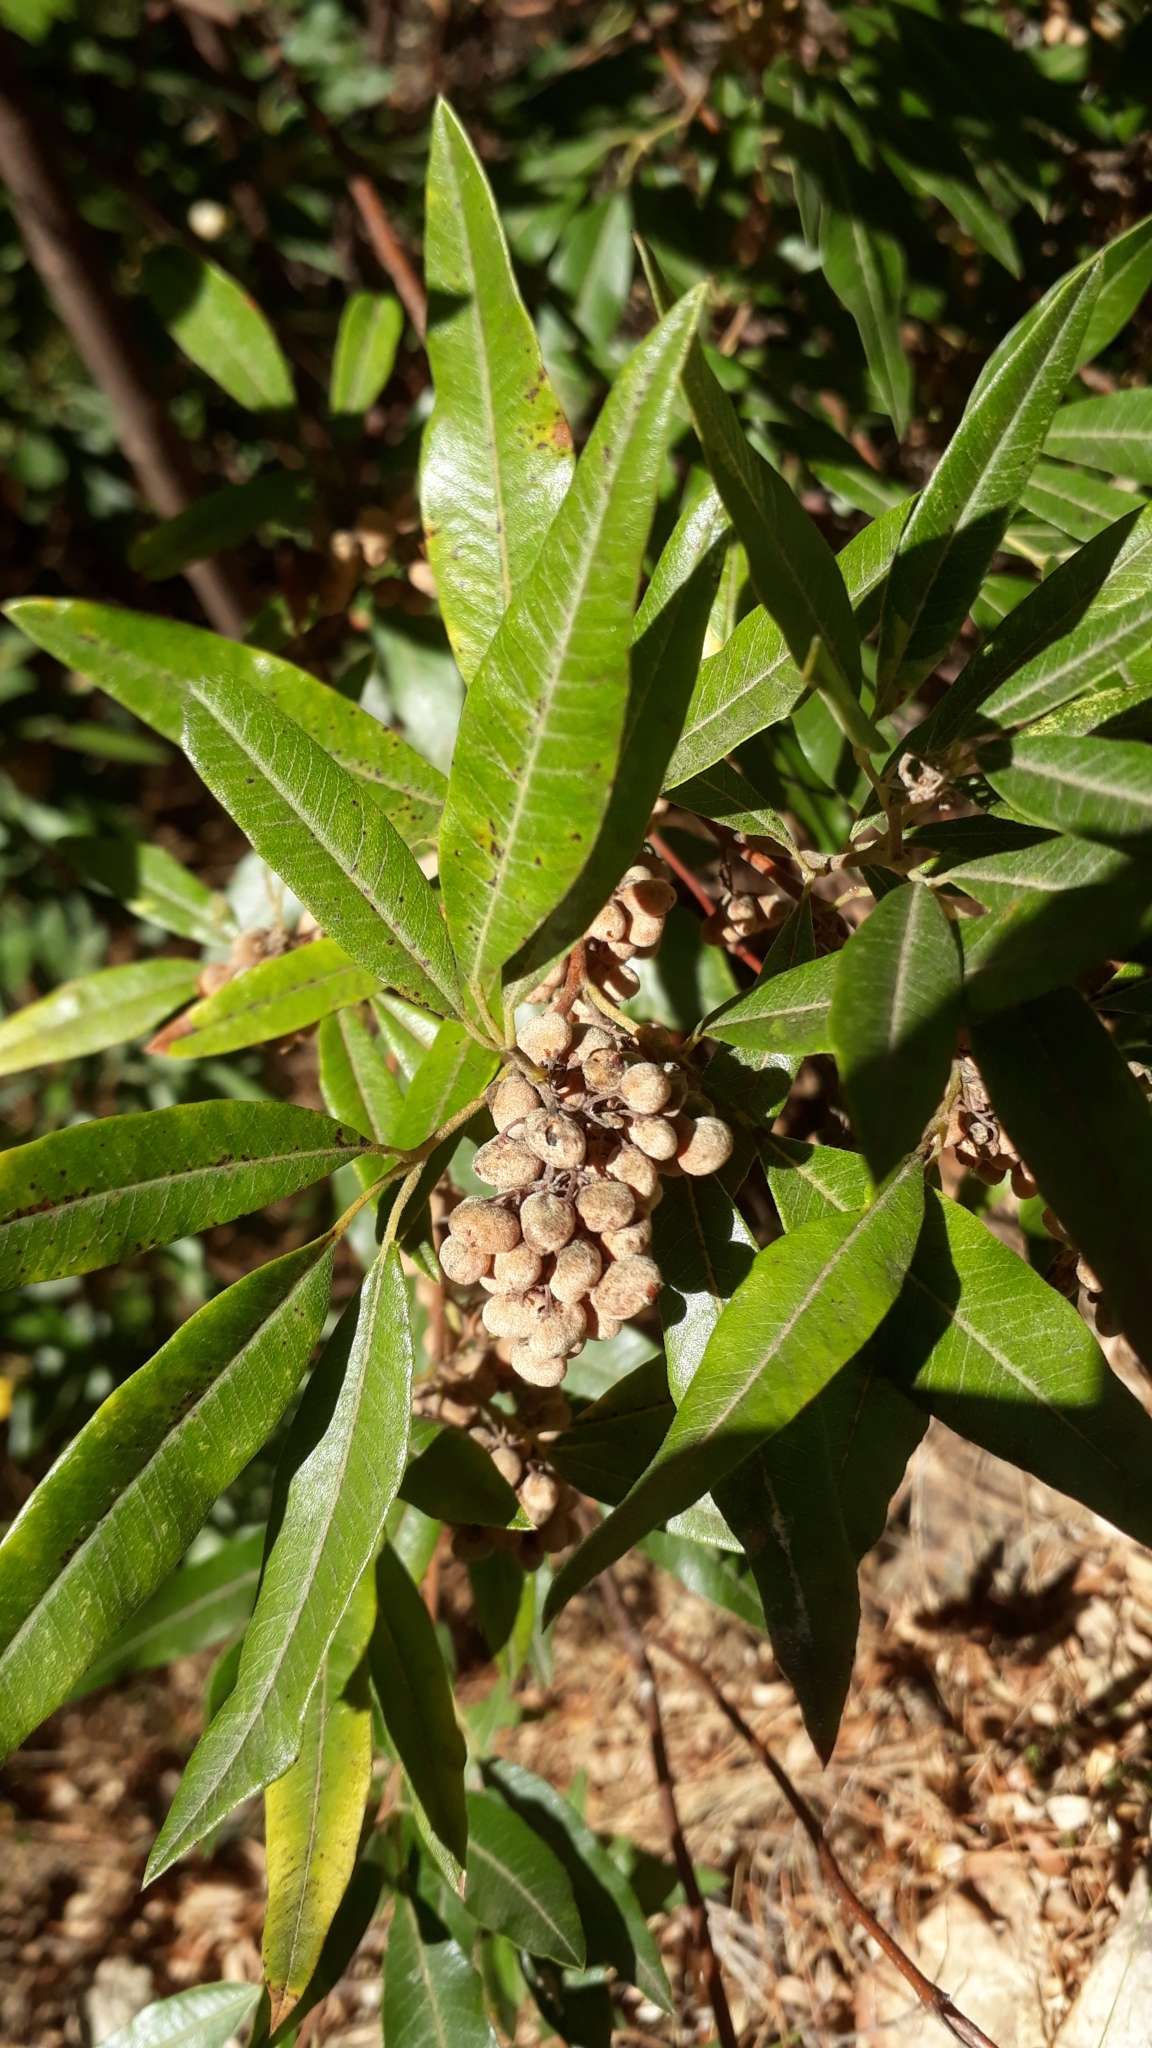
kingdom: Plantae
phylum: Tracheophyta
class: Magnoliopsida
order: Sapindales
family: Anacardiaceae
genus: Searsia
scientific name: Searsia angustifolia
